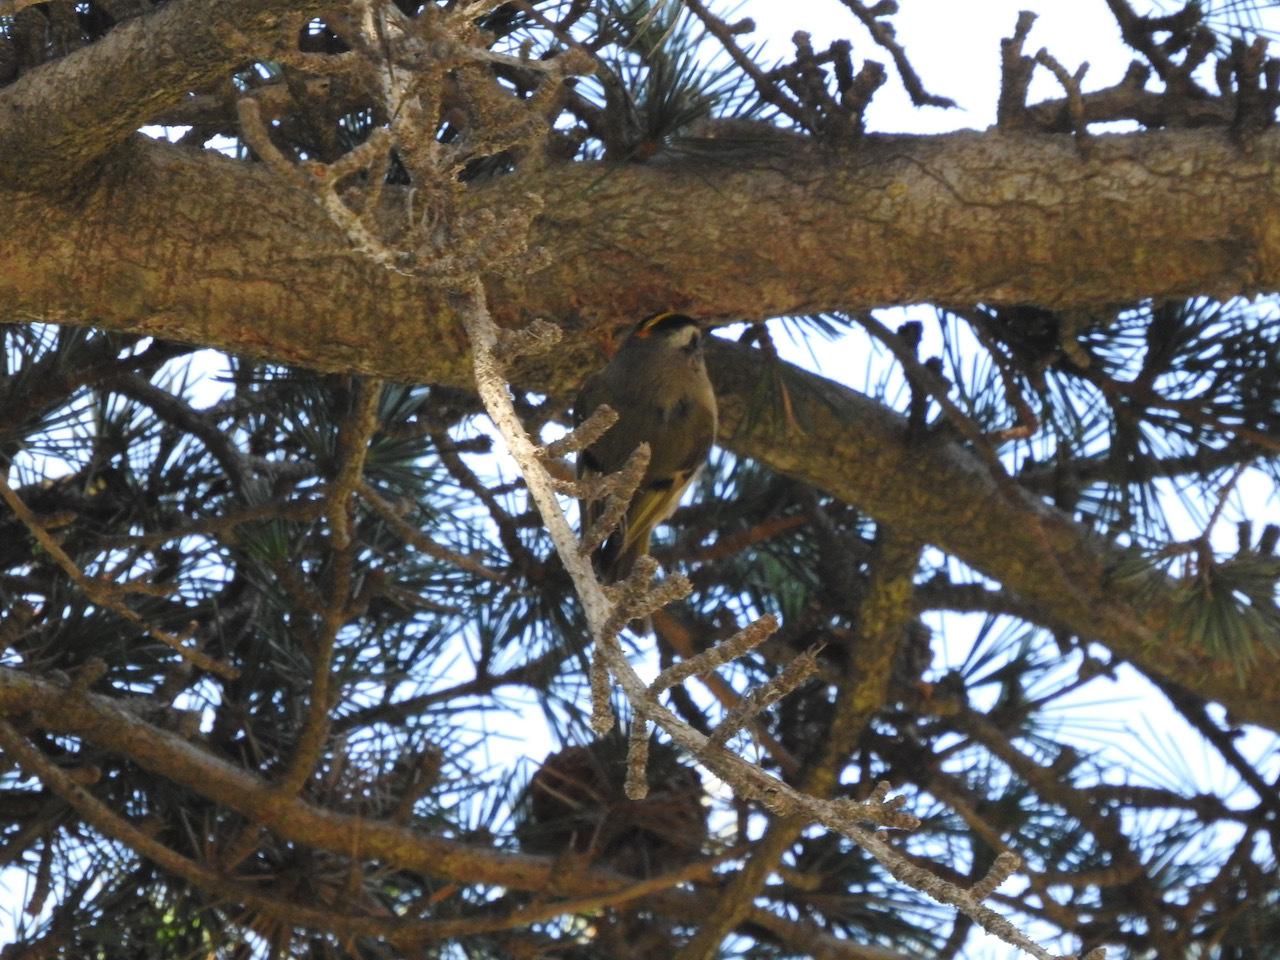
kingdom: Animalia
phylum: Chordata
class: Aves
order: Passeriformes
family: Regulidae
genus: Regulus
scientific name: Regulus satrapa
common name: Golden-crowned kinglet
